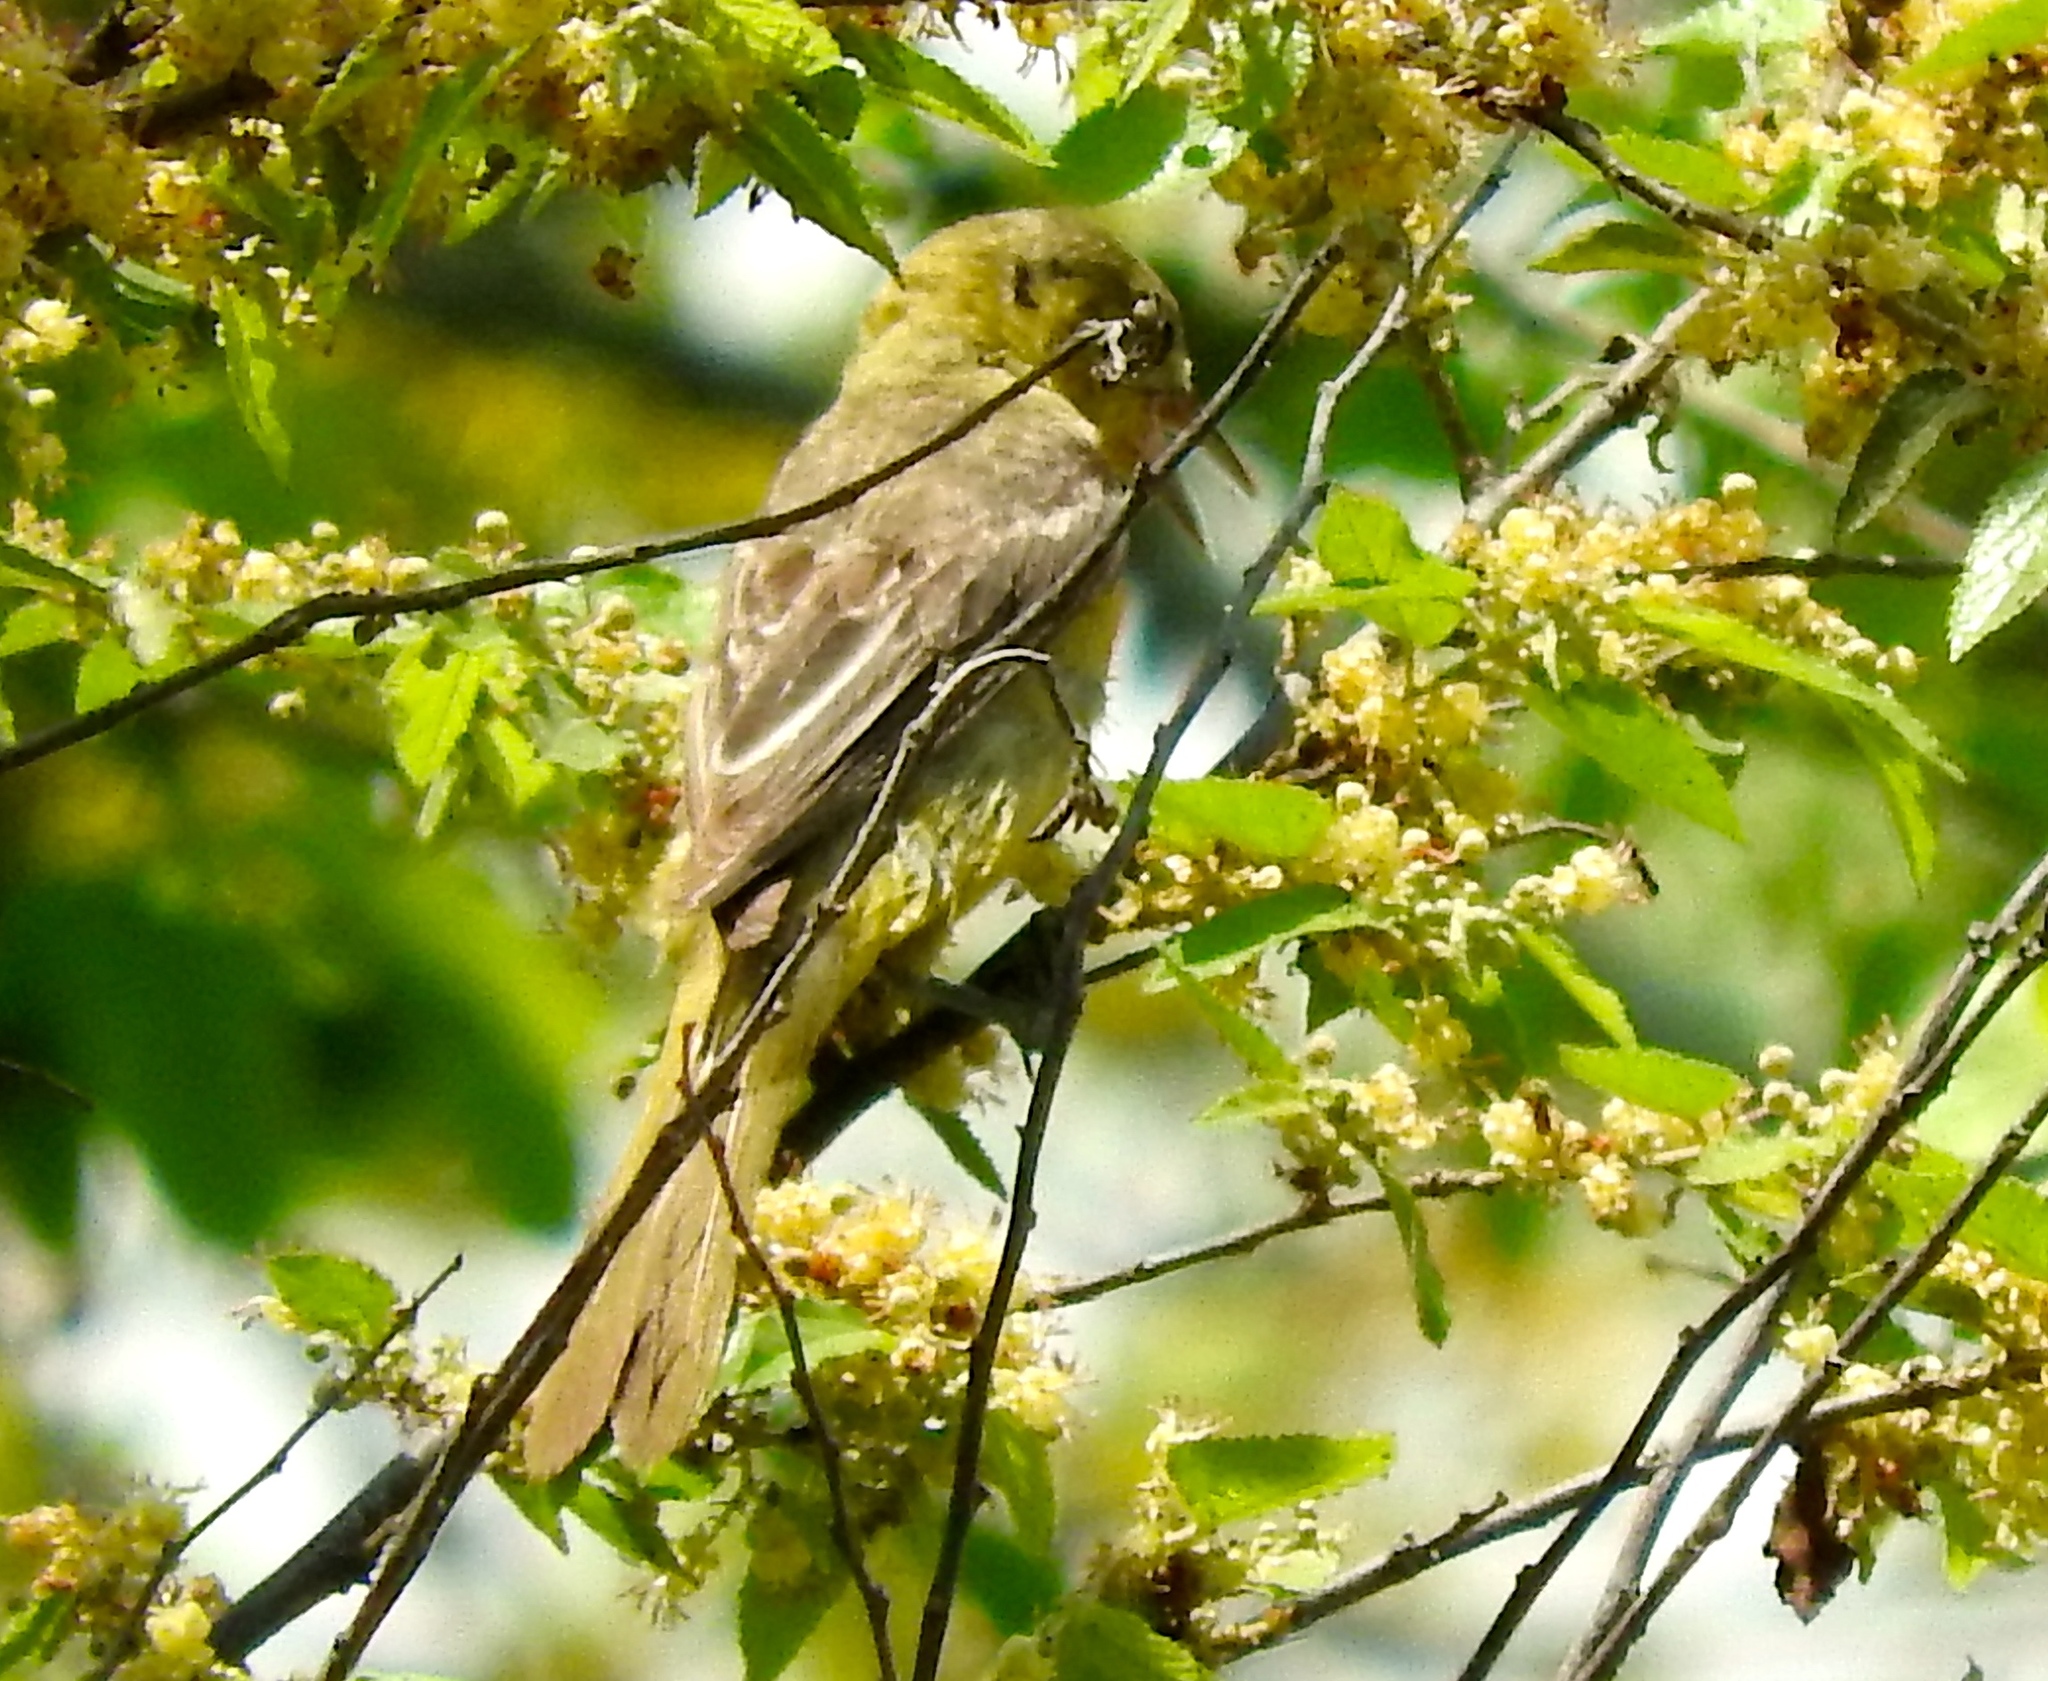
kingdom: Animalia
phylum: Chordata
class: Aves
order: Passeriformes
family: Icteridae
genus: Icterus
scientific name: Icterus
